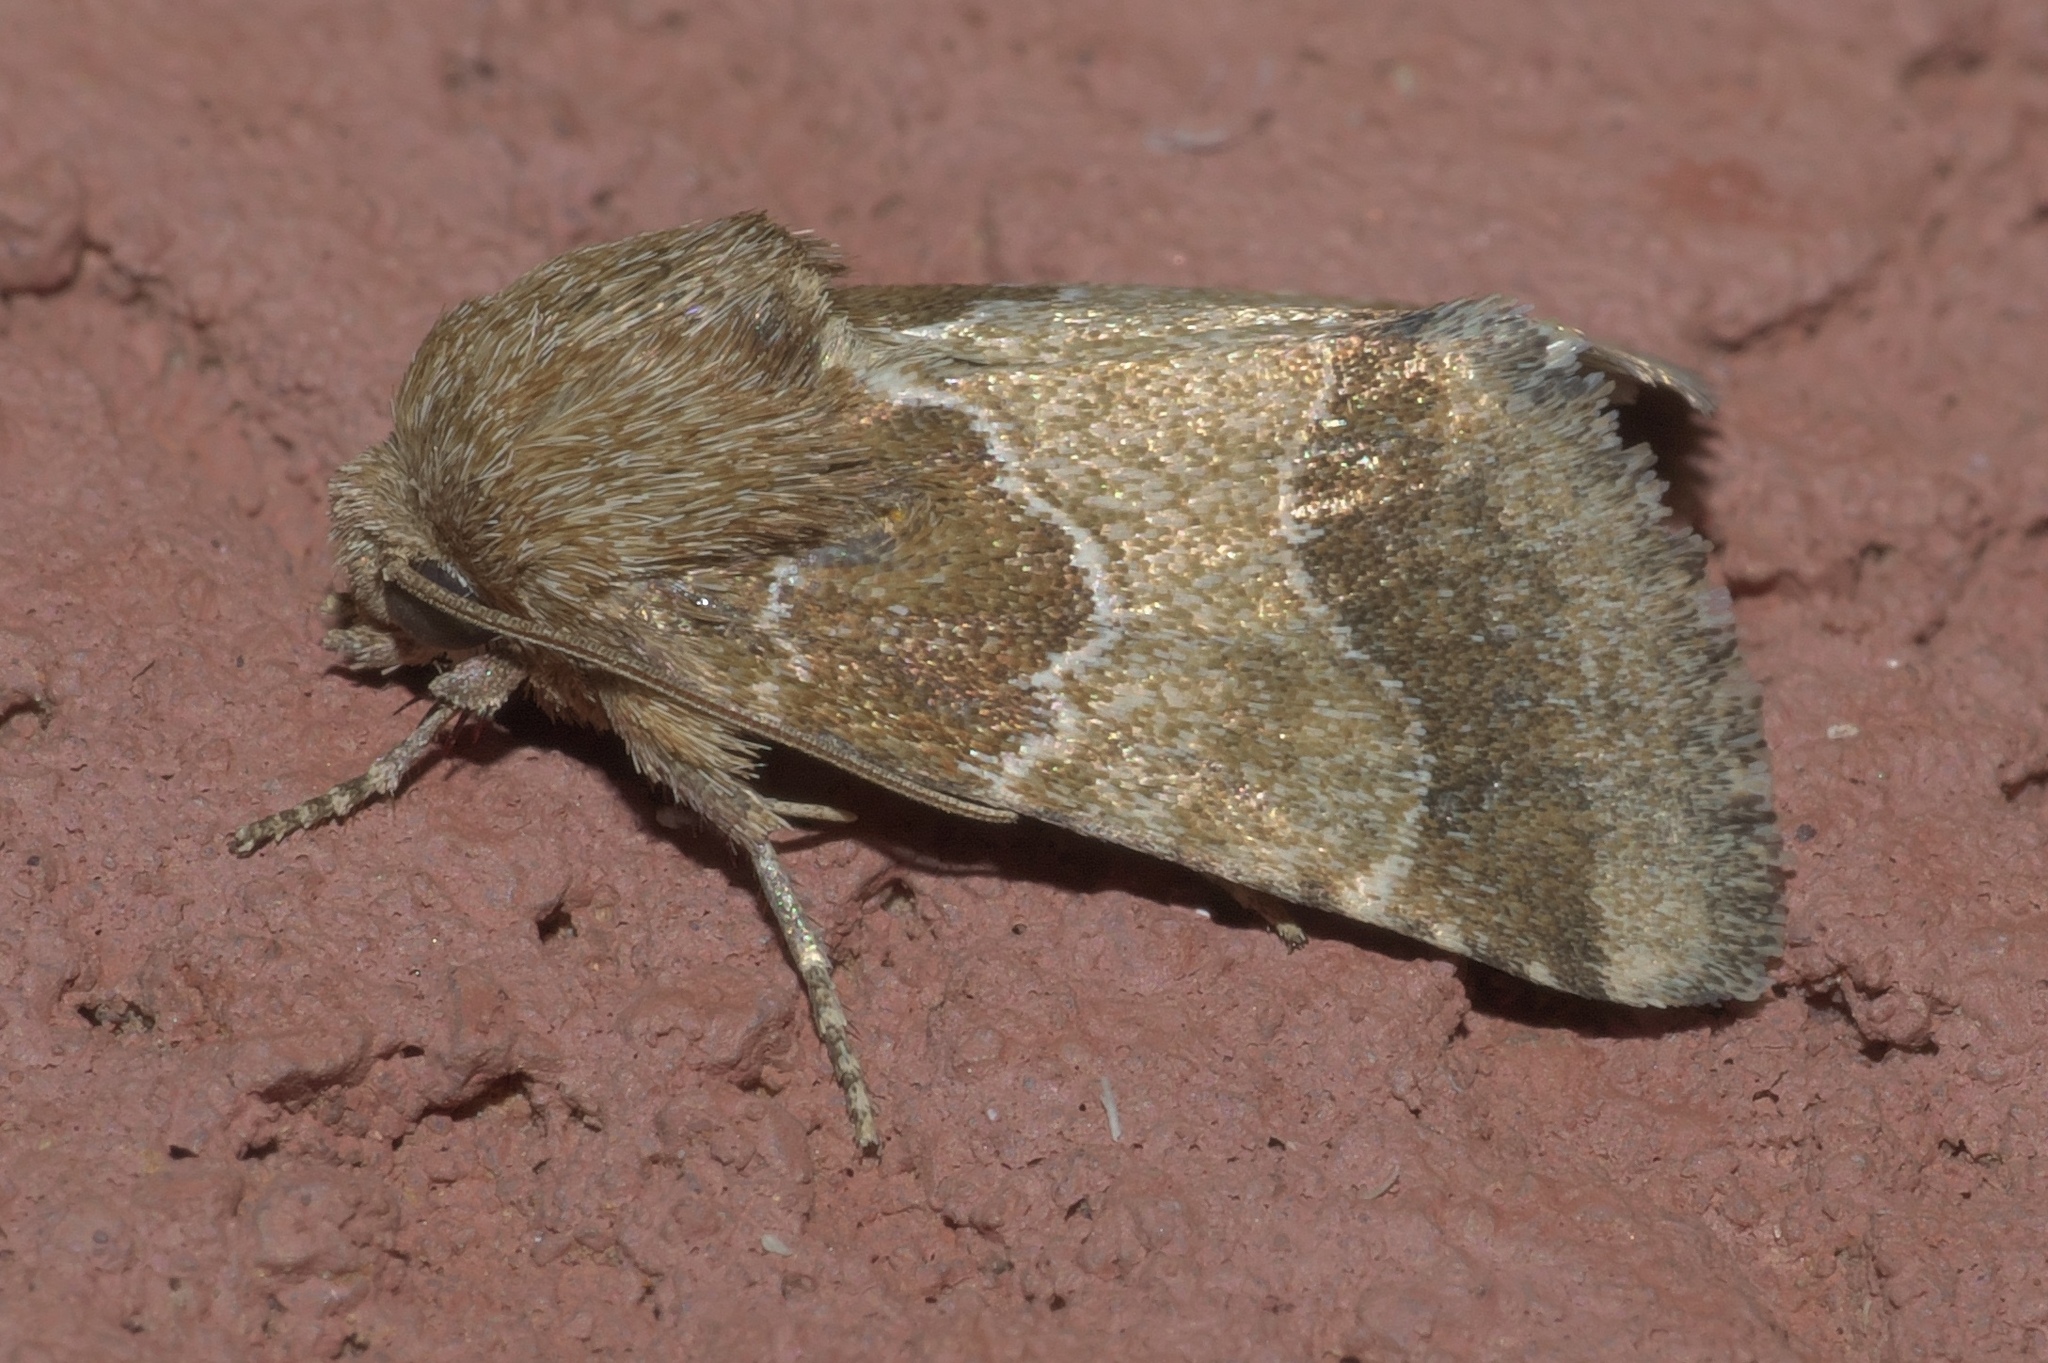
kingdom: Animalia
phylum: Arthropoda
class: Insecta
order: Lepidoptera
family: Noctuidae
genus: Schinia
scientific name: Schinia gracilenta
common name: Slender flower moth
